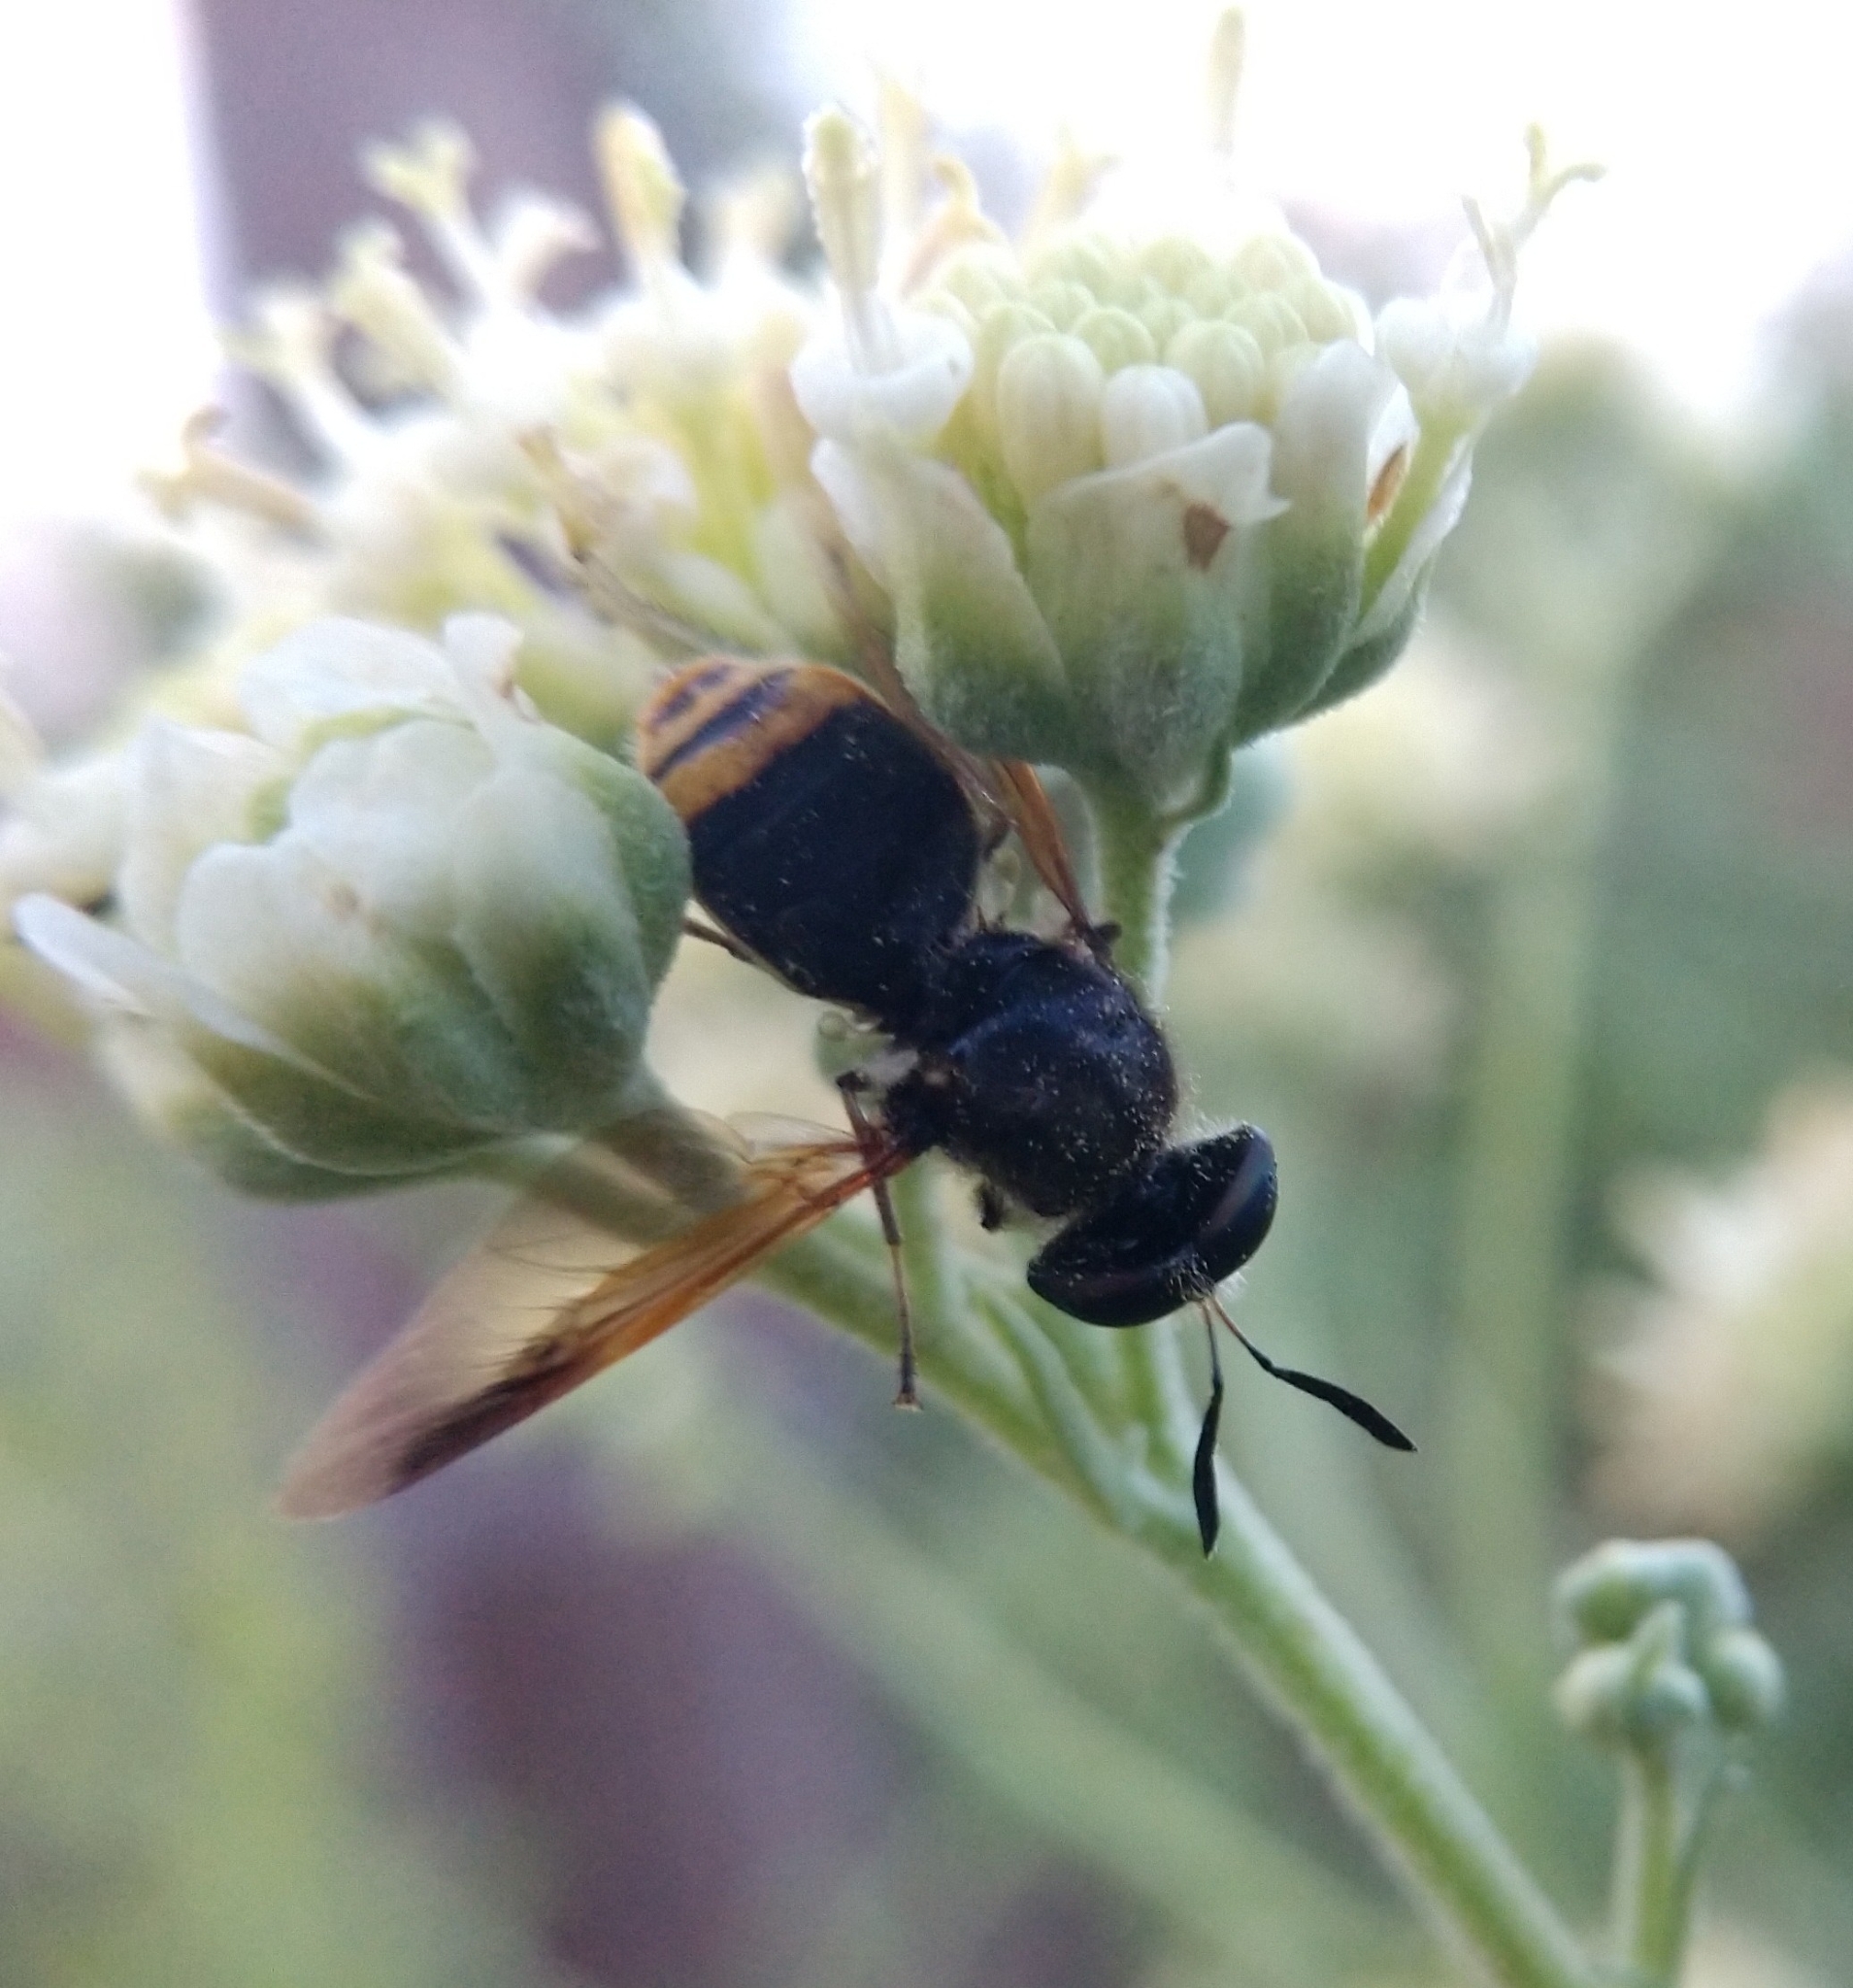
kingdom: Animalia
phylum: Arthropoda
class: Insecta
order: Diptera
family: Stratiomyidae
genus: Hoplitimyia
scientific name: Hoplitimyia mutabilis
